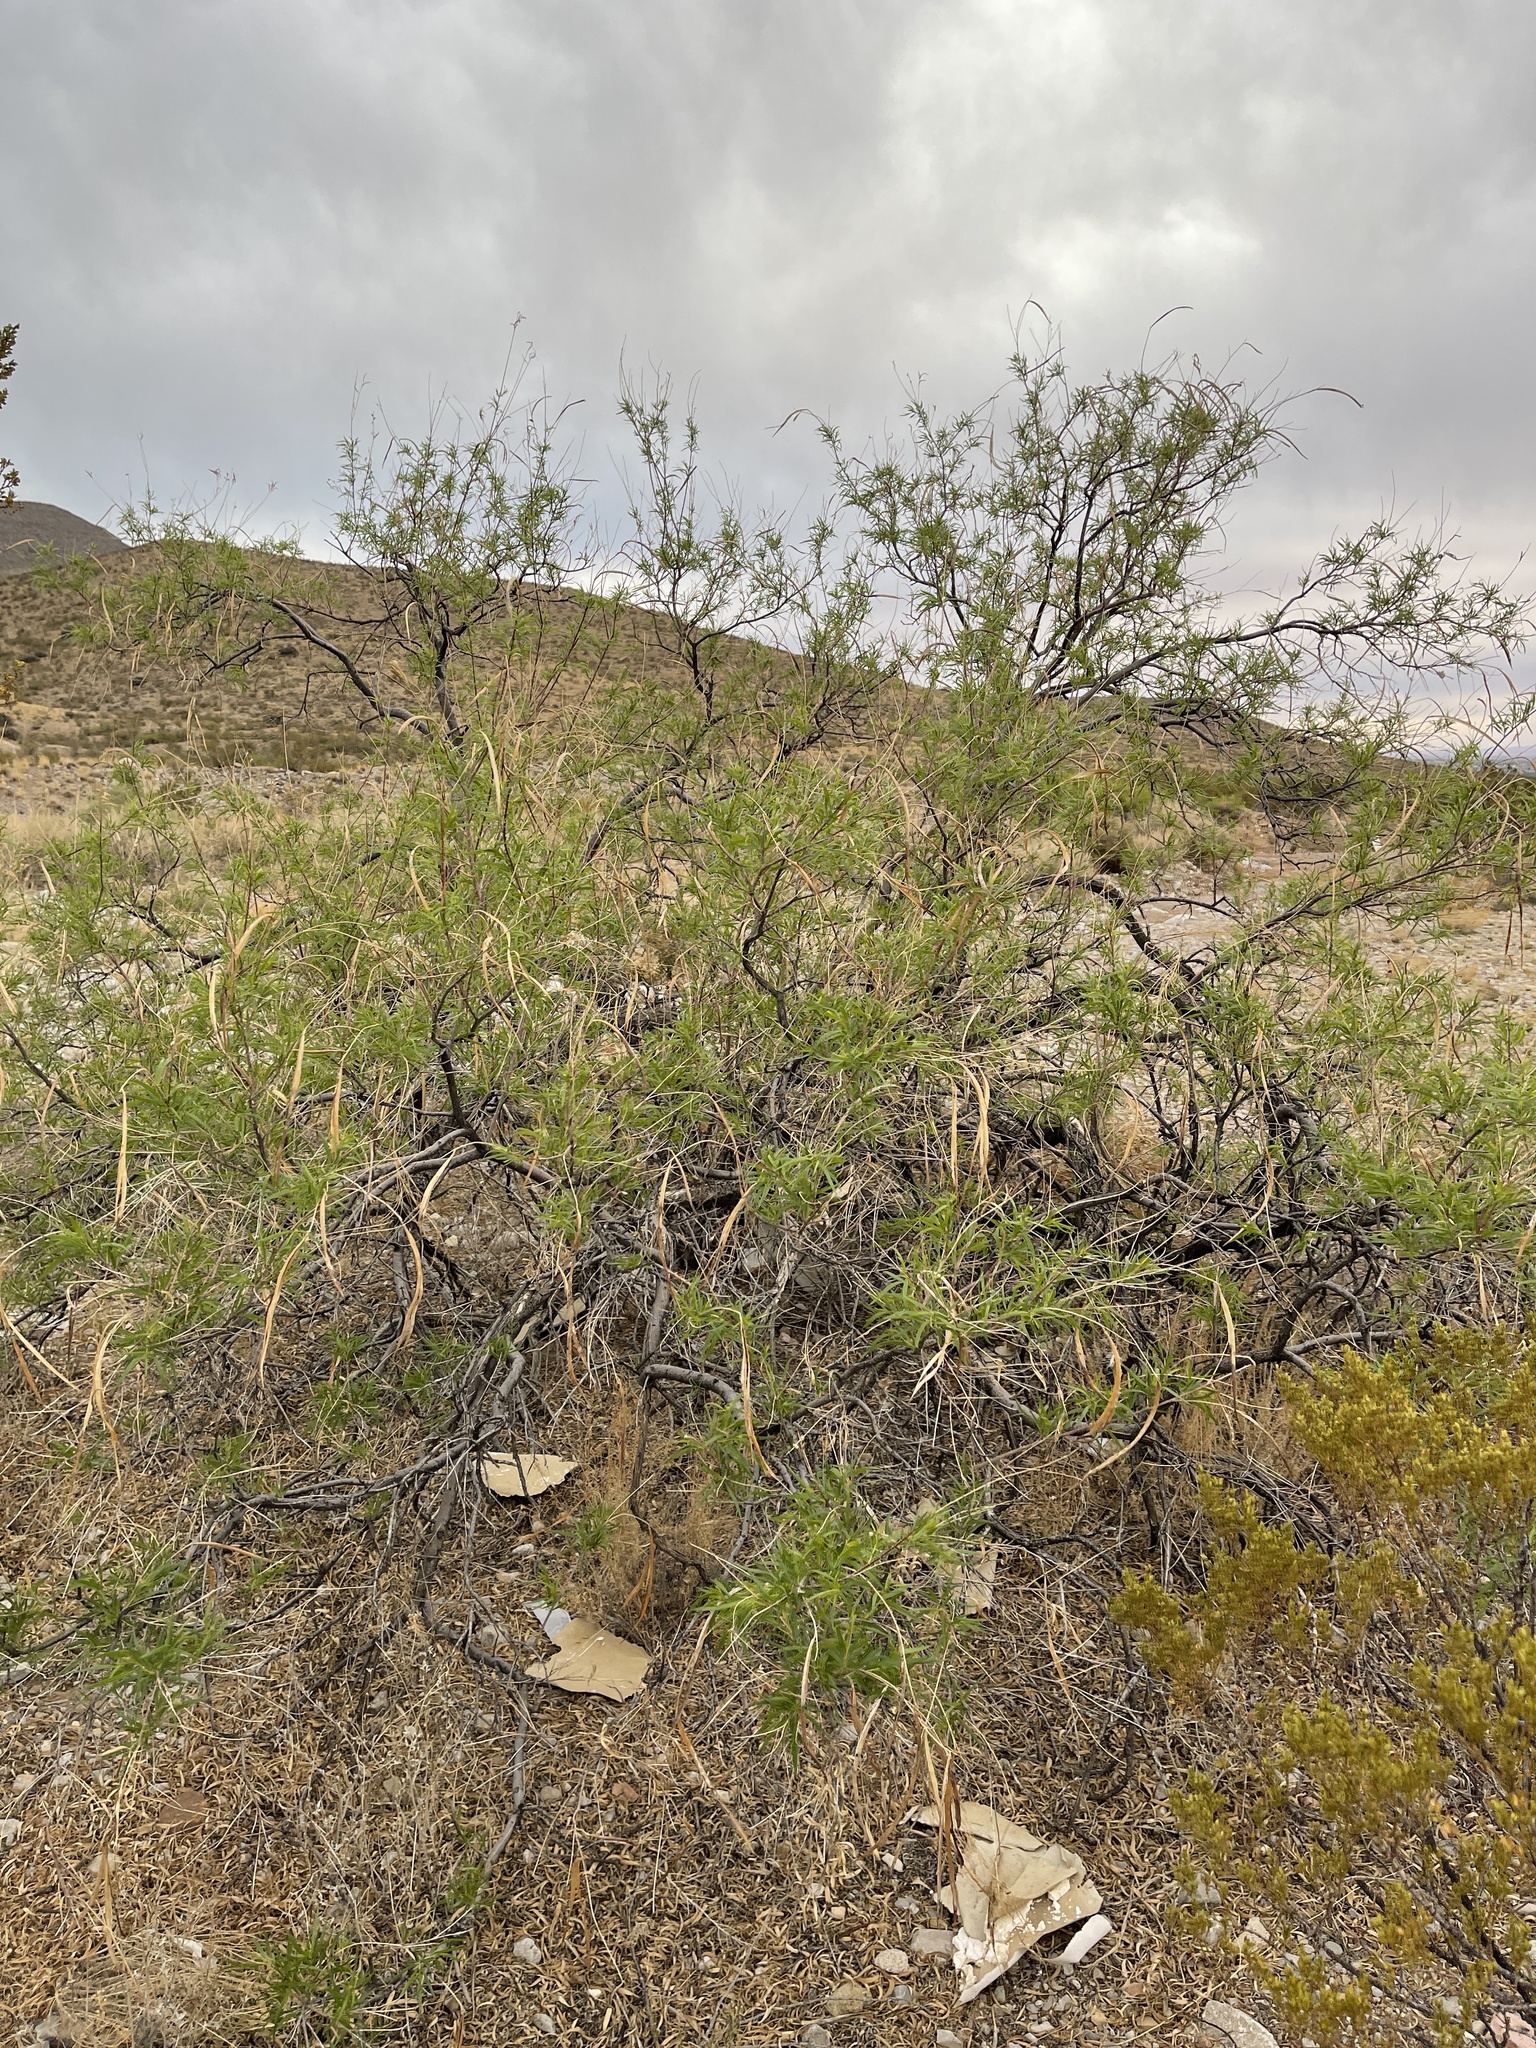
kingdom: Plantae
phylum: Tracheophyta
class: Magnoliopsida
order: Lamiales
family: Bignoniaceae
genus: Chilopsis
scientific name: Chilopsis linearis
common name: Desert-willow
